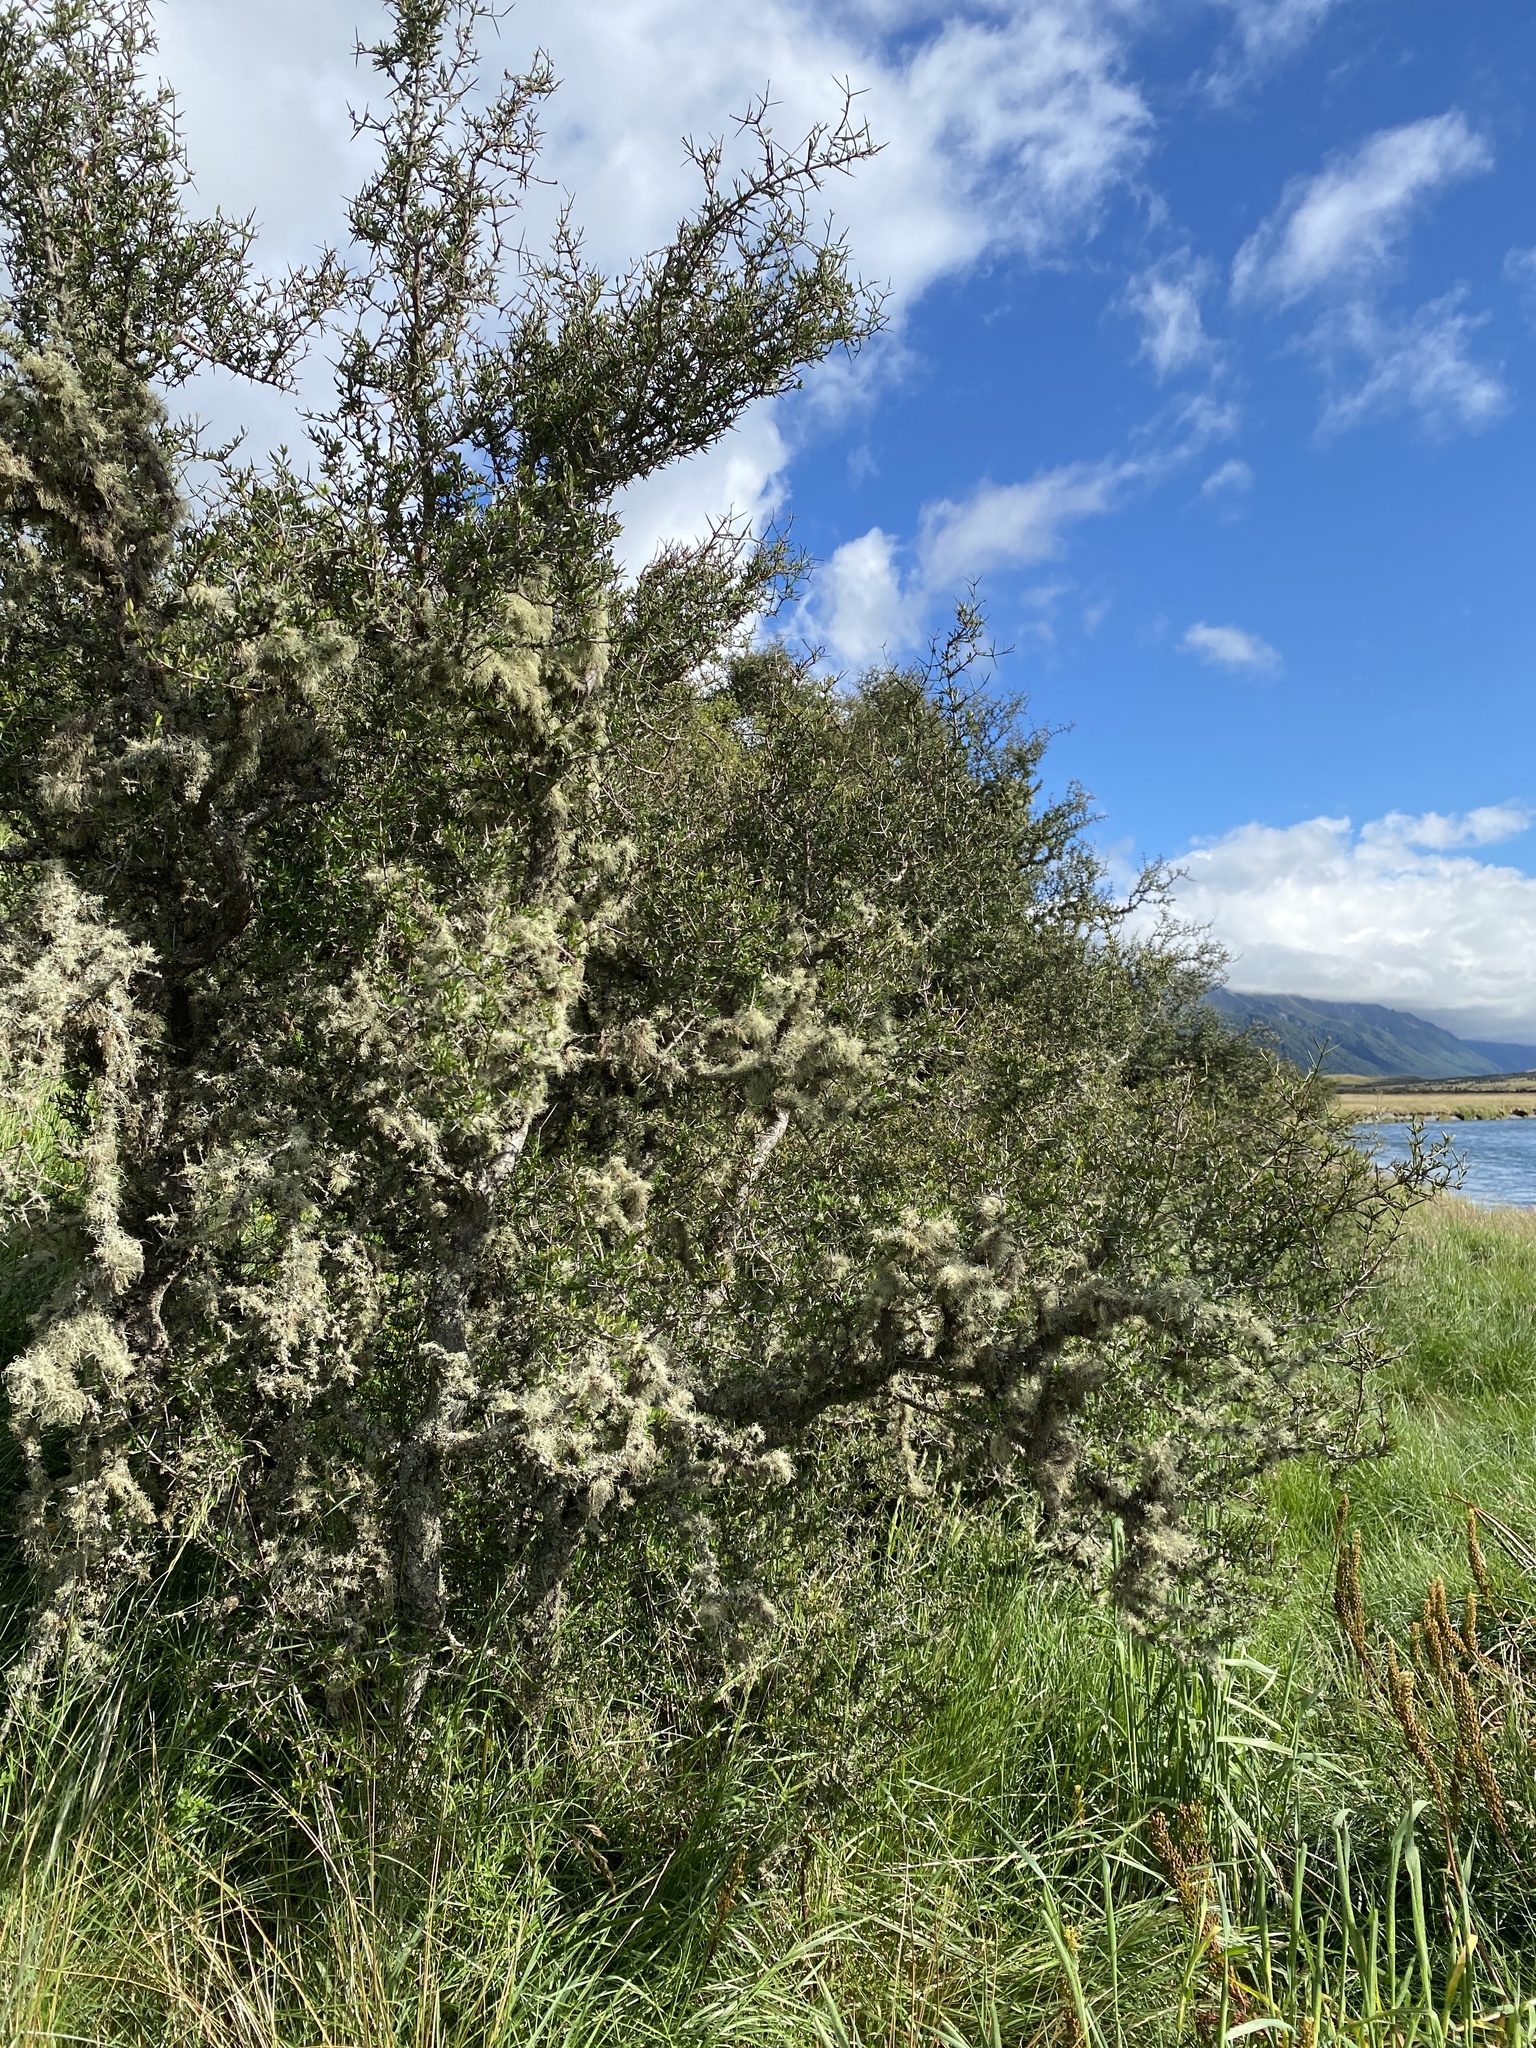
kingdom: Plantae
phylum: Tracheophyta
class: Magnoliopsida
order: Rosales
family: Rhamnaceae
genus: Discaria
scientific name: Discaria toumatou
